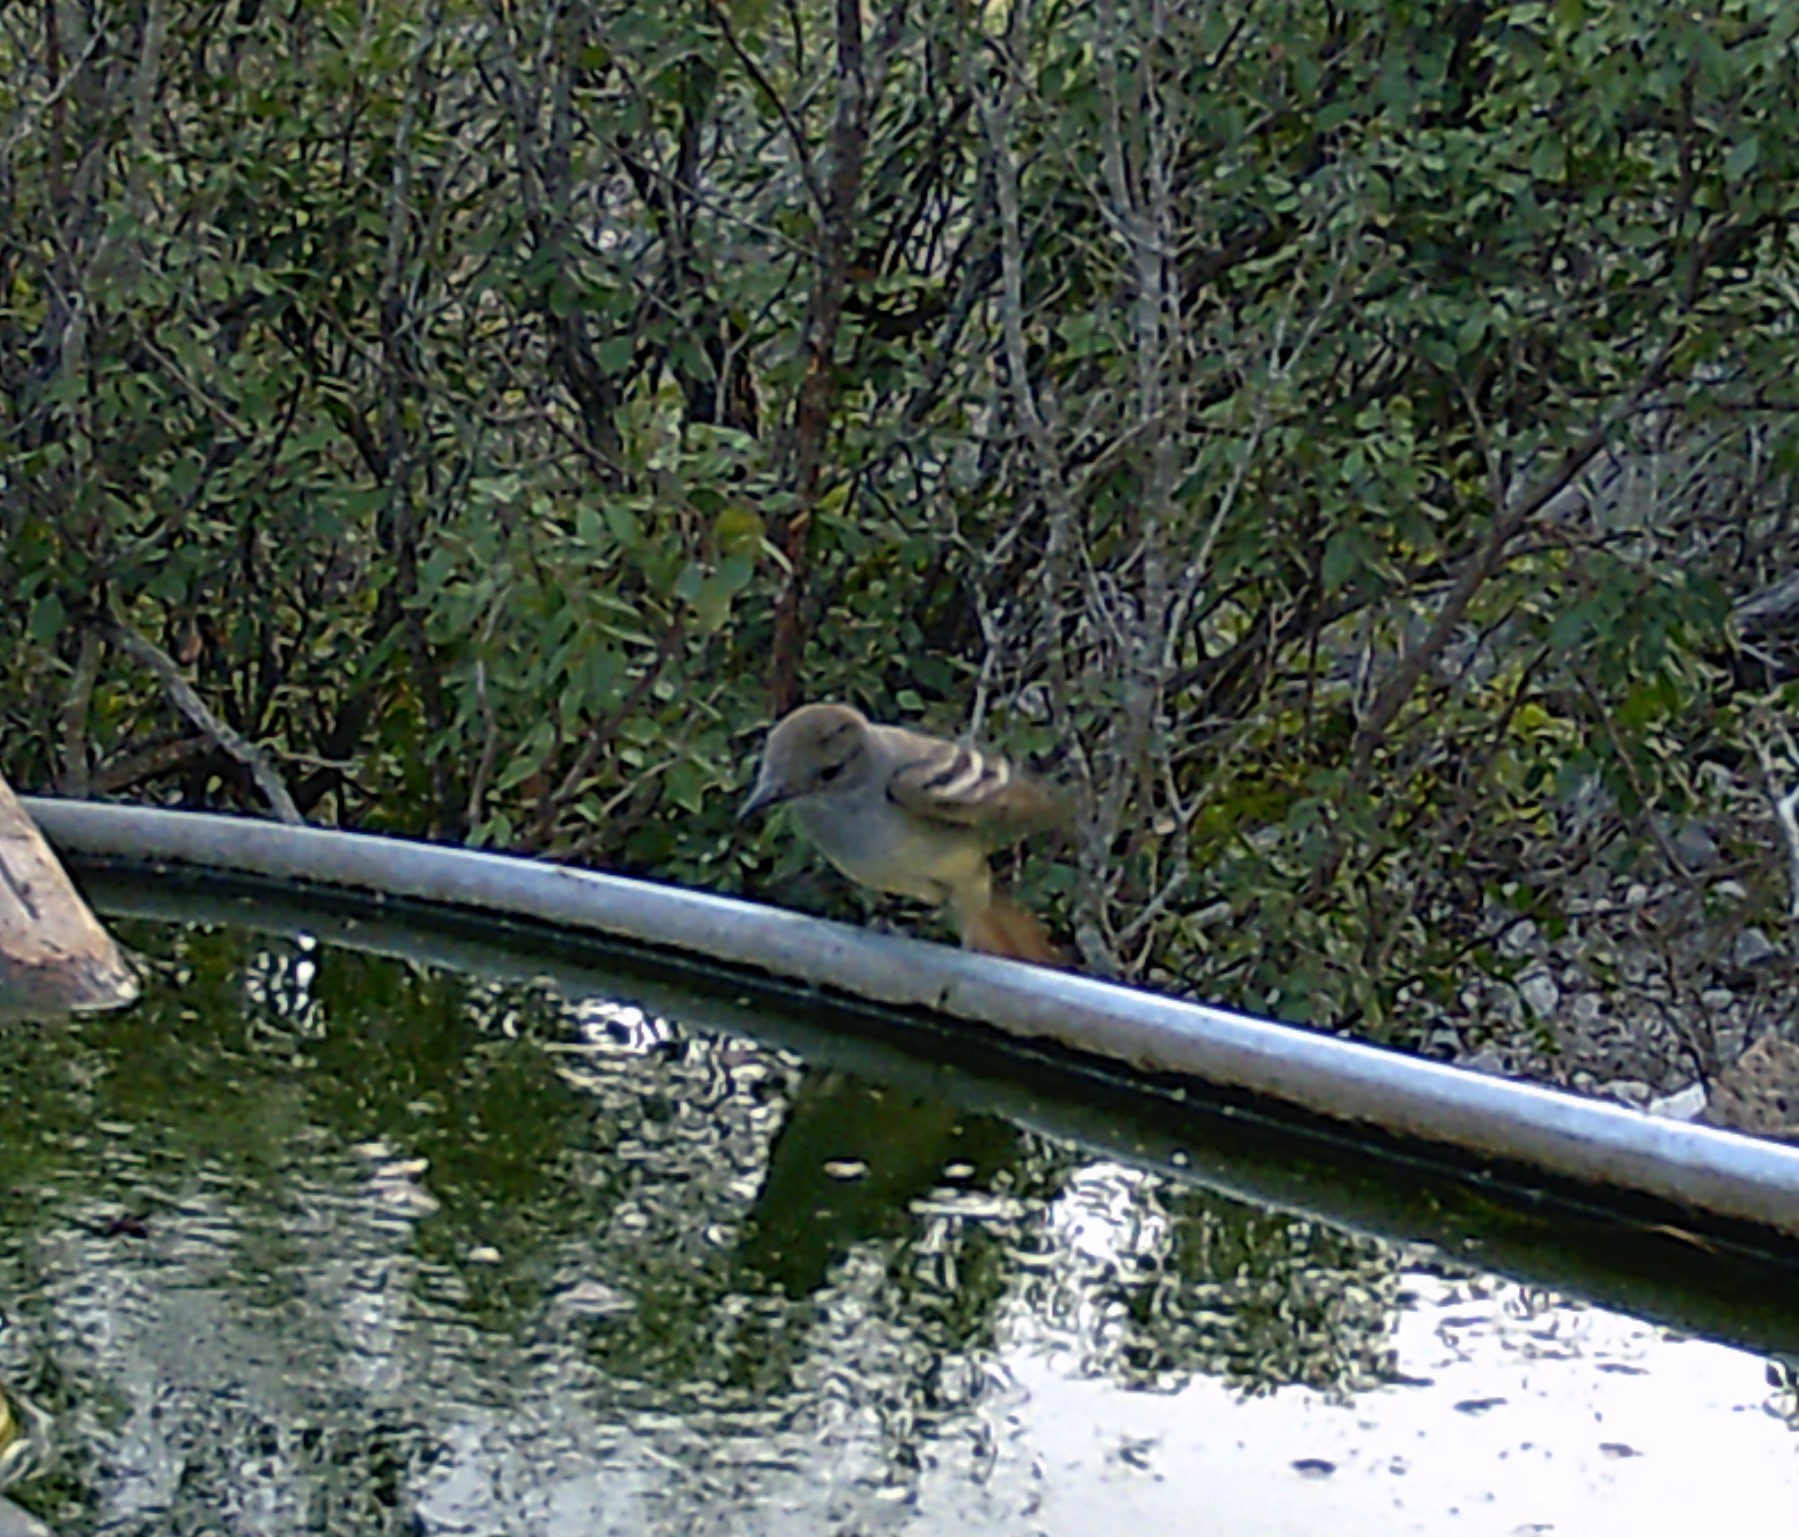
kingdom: Animalia
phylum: Chordata
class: Aves
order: Passeriformes
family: Tyrannidae
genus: Myiarchus
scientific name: Myiarchus cinerascens
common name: Ash-throated flycatcher
